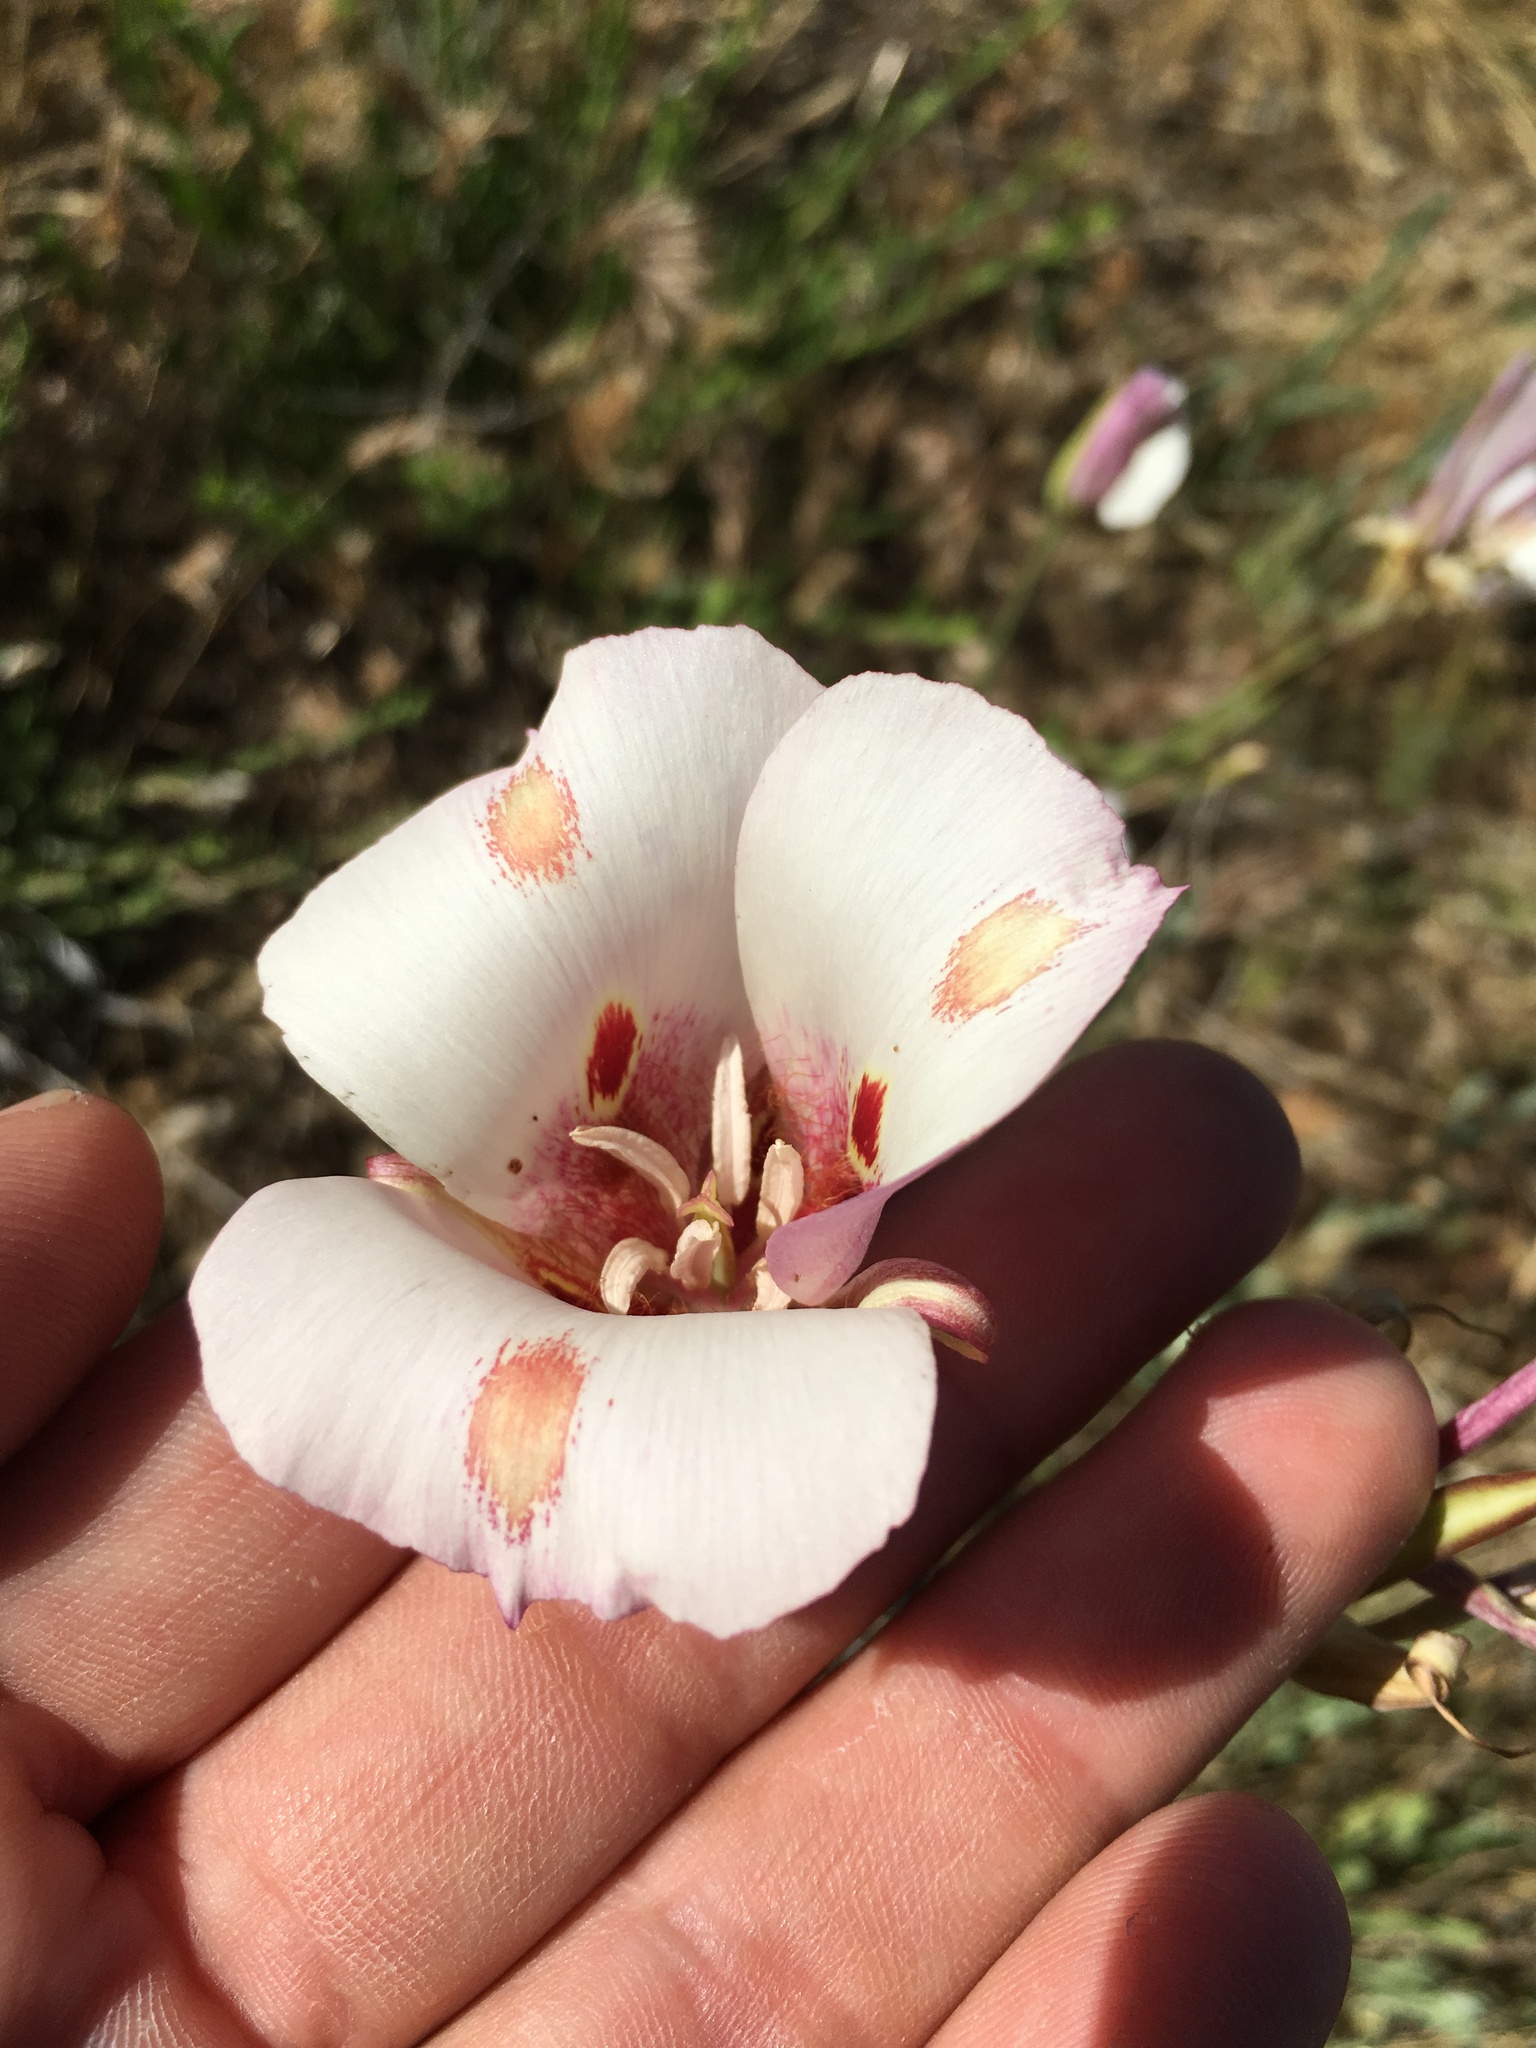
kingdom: Plantae
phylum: Tracheophyta
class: Liliopsida
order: Liliales
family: Liliaceae
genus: Calochortus
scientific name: Calochortus venustus
